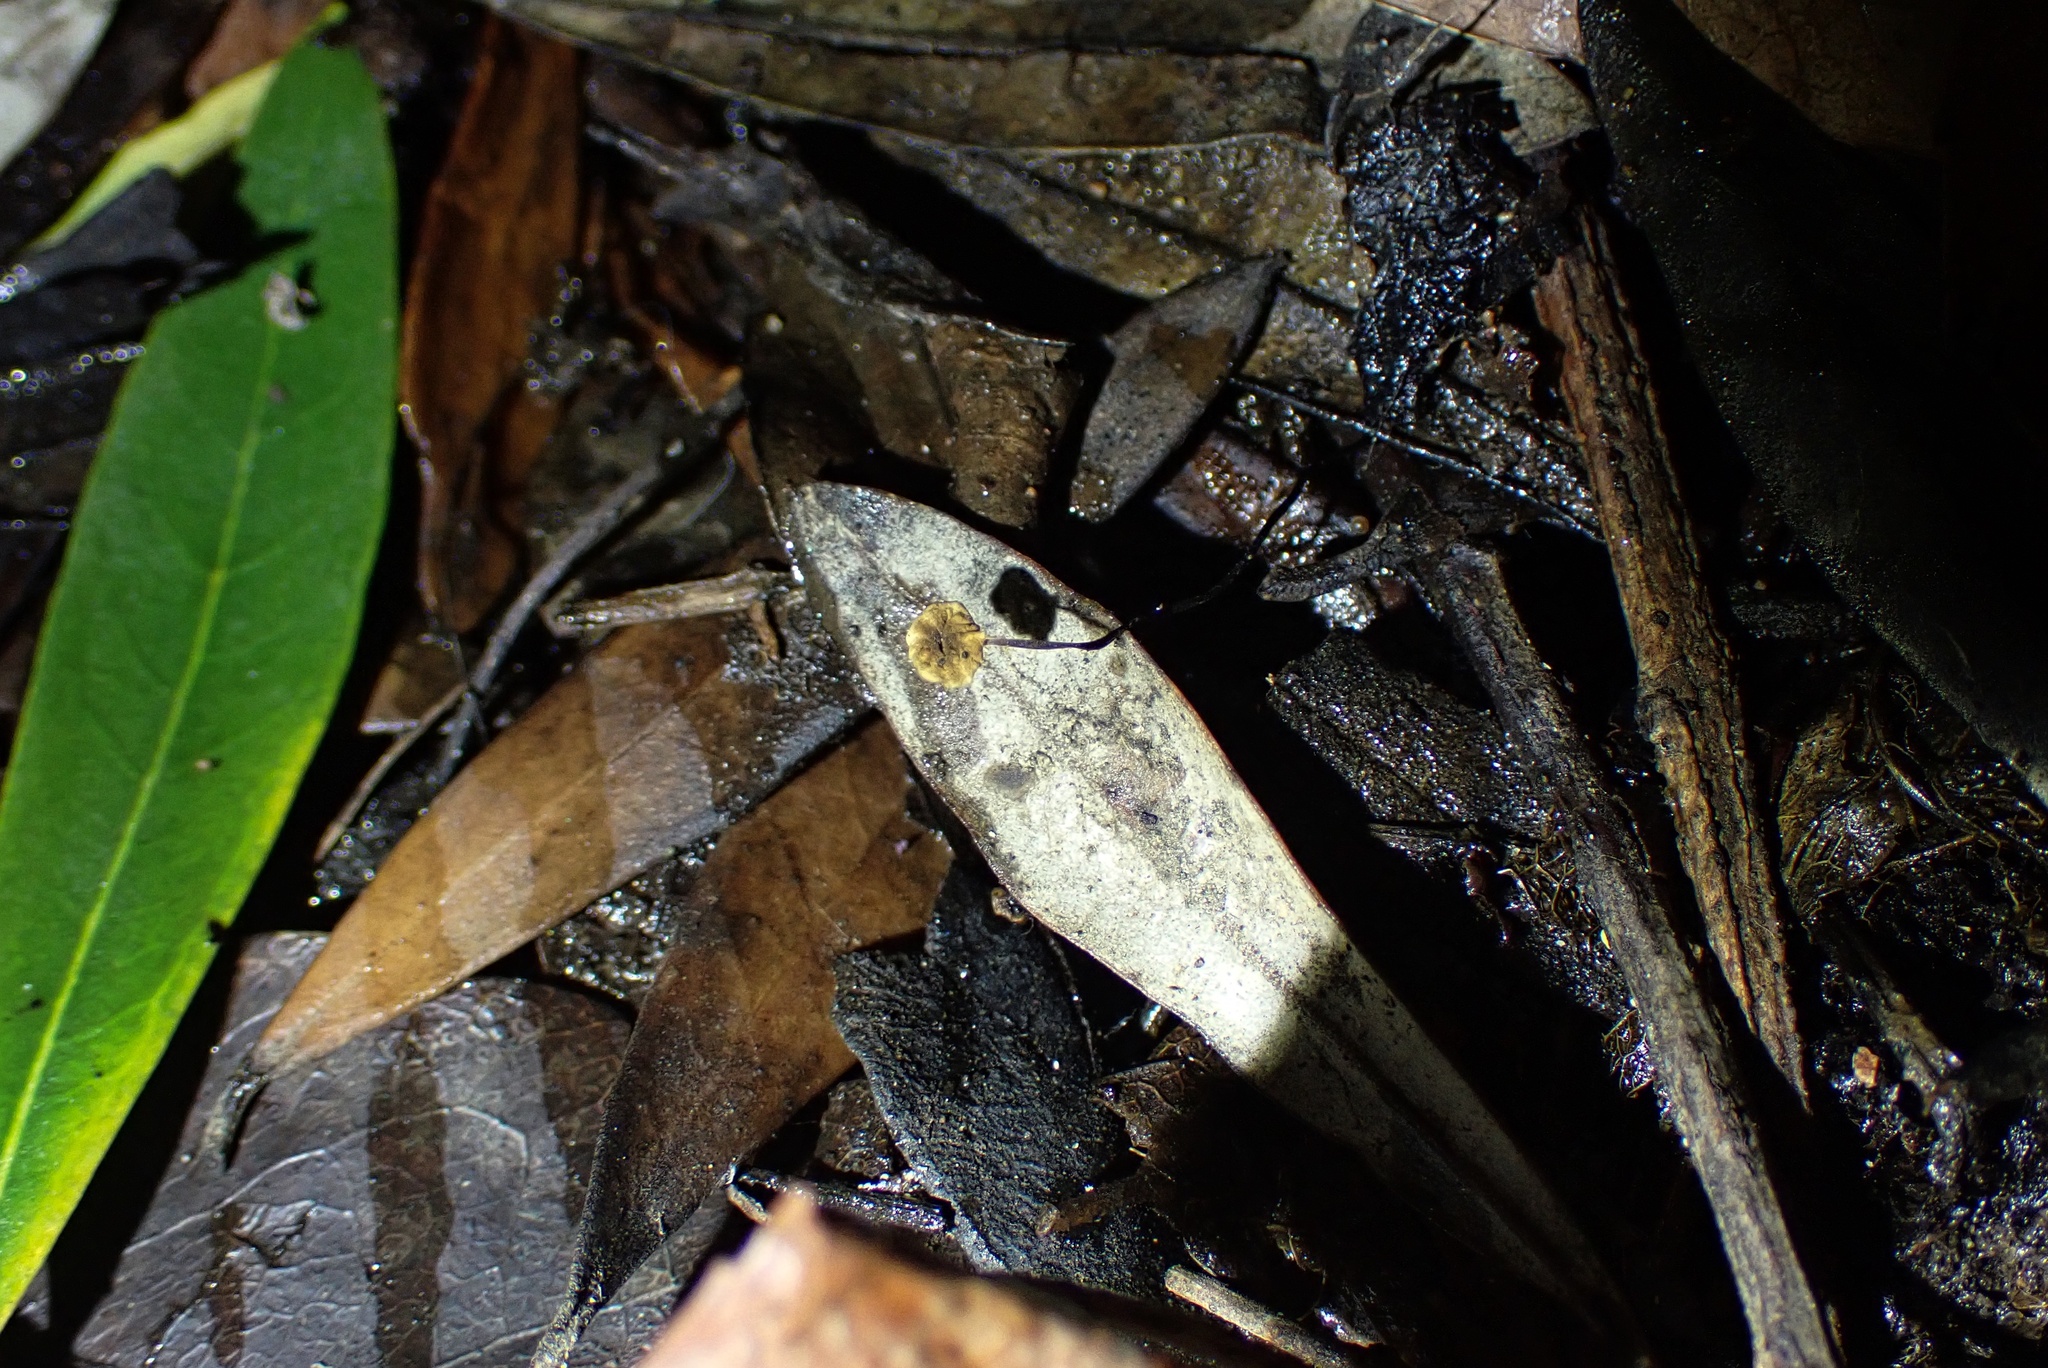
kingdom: Fungi
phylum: Basidiomycota
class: Agaricomycetes
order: Agaricales
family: Physalacriaceae
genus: Cryptomarasmius
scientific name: Cryptomarasmius corbariensis
